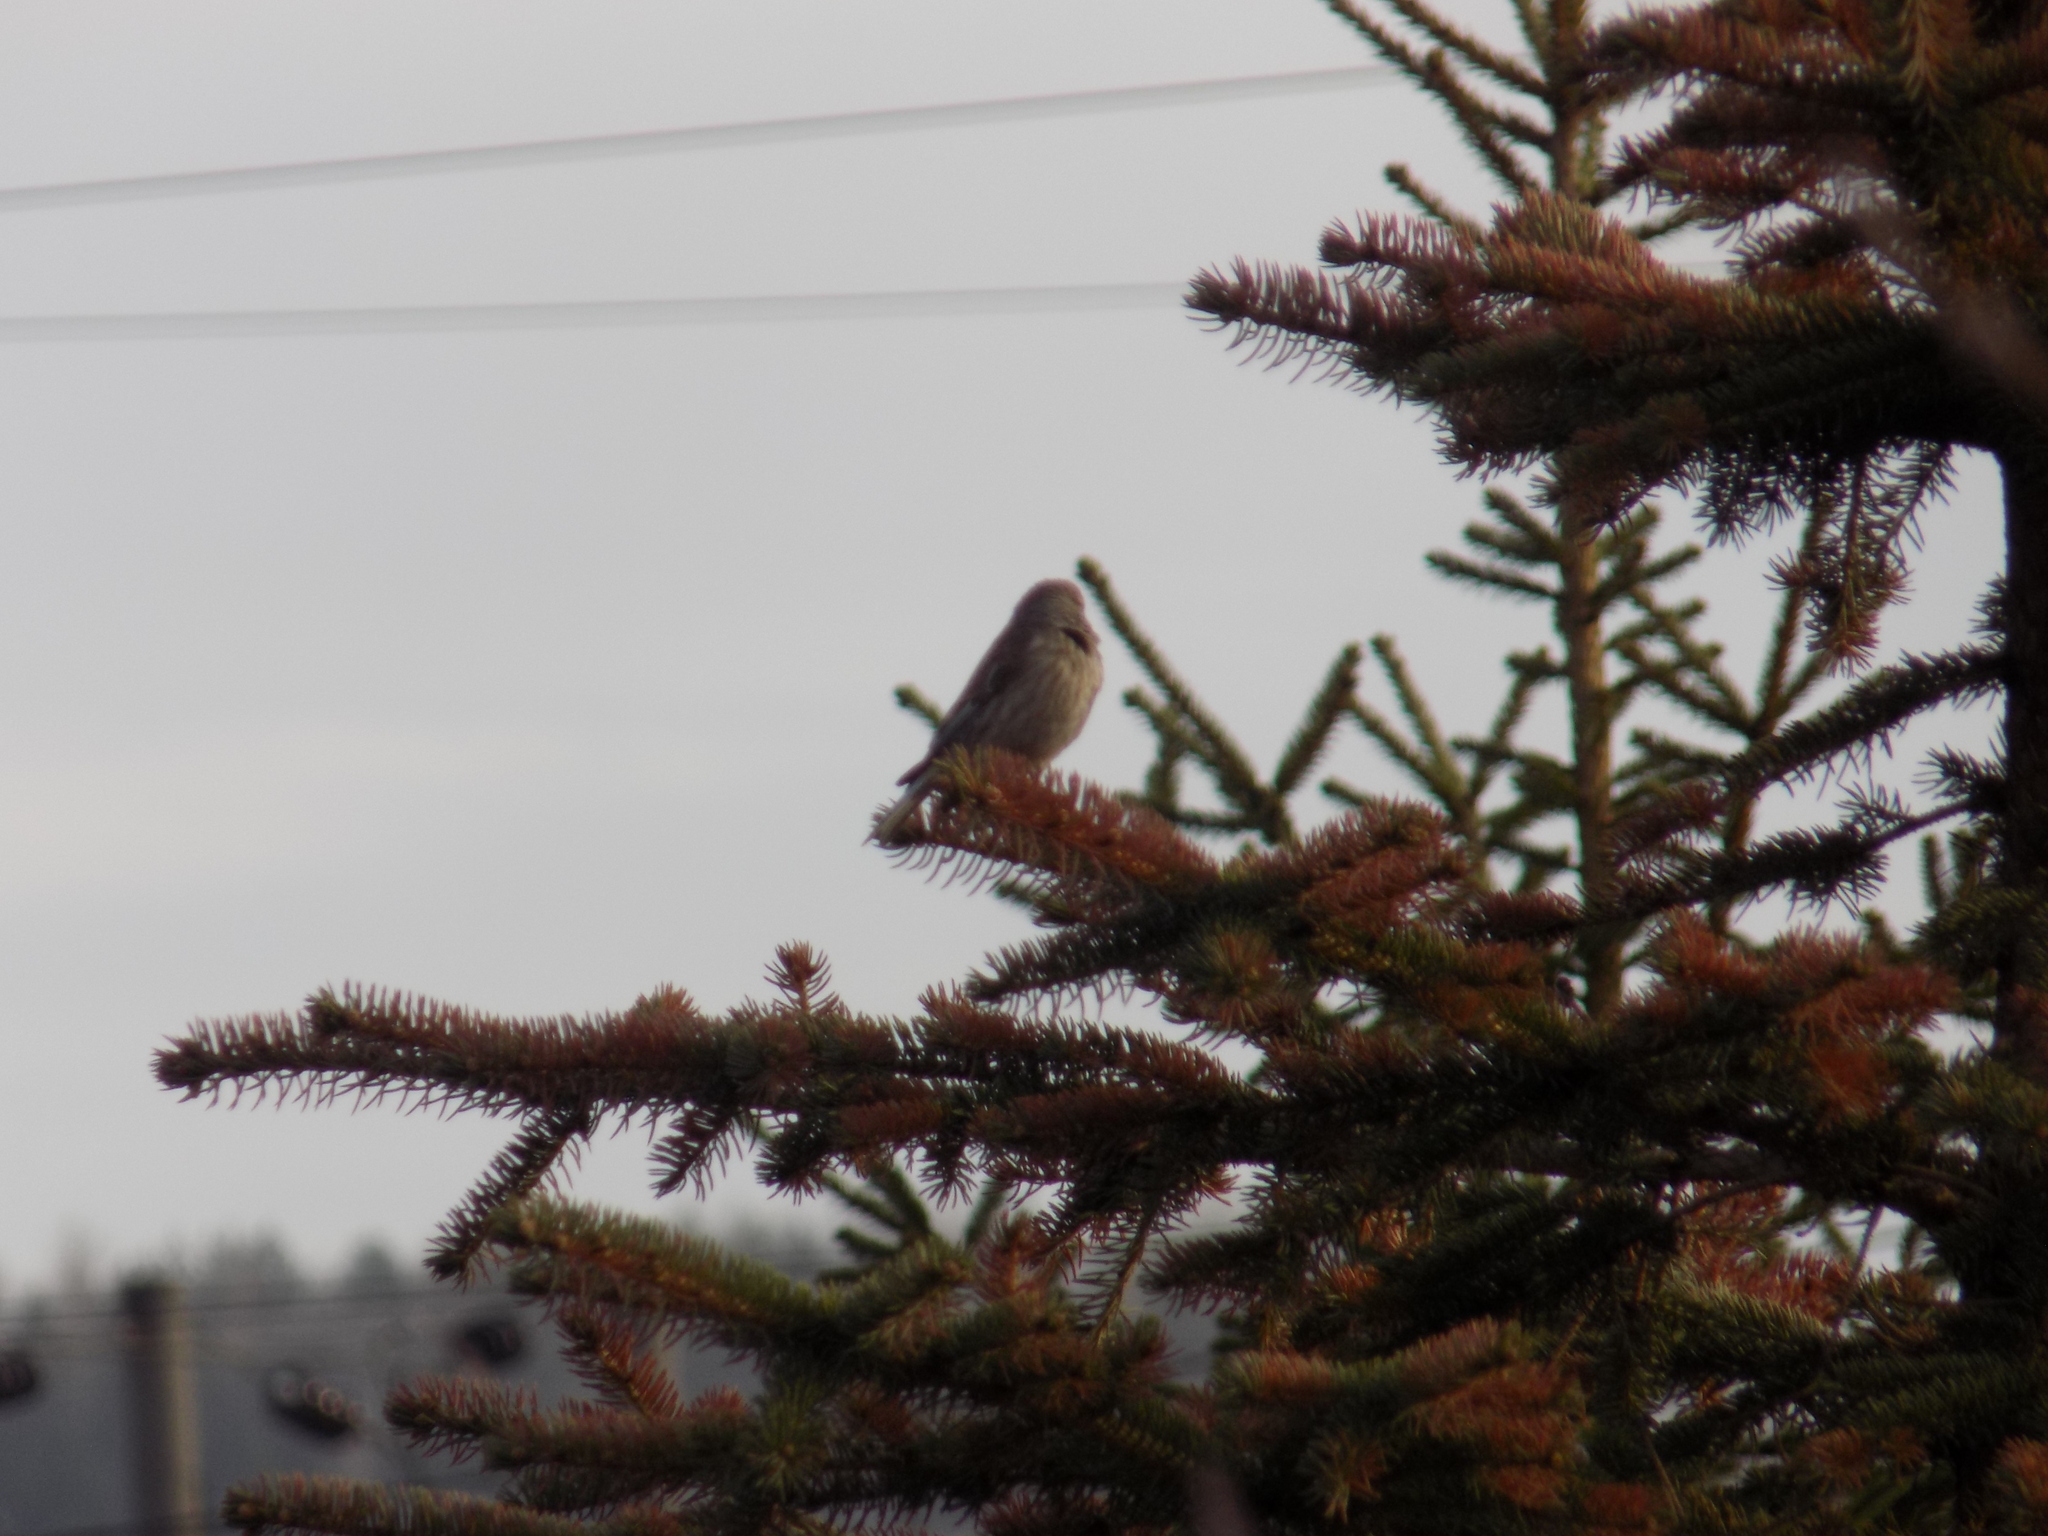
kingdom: Animalia
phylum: Chordata
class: Aves
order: Passeriformes
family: Fringillidae
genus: Linaria
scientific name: Linaria cannabina
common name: Common linnet
